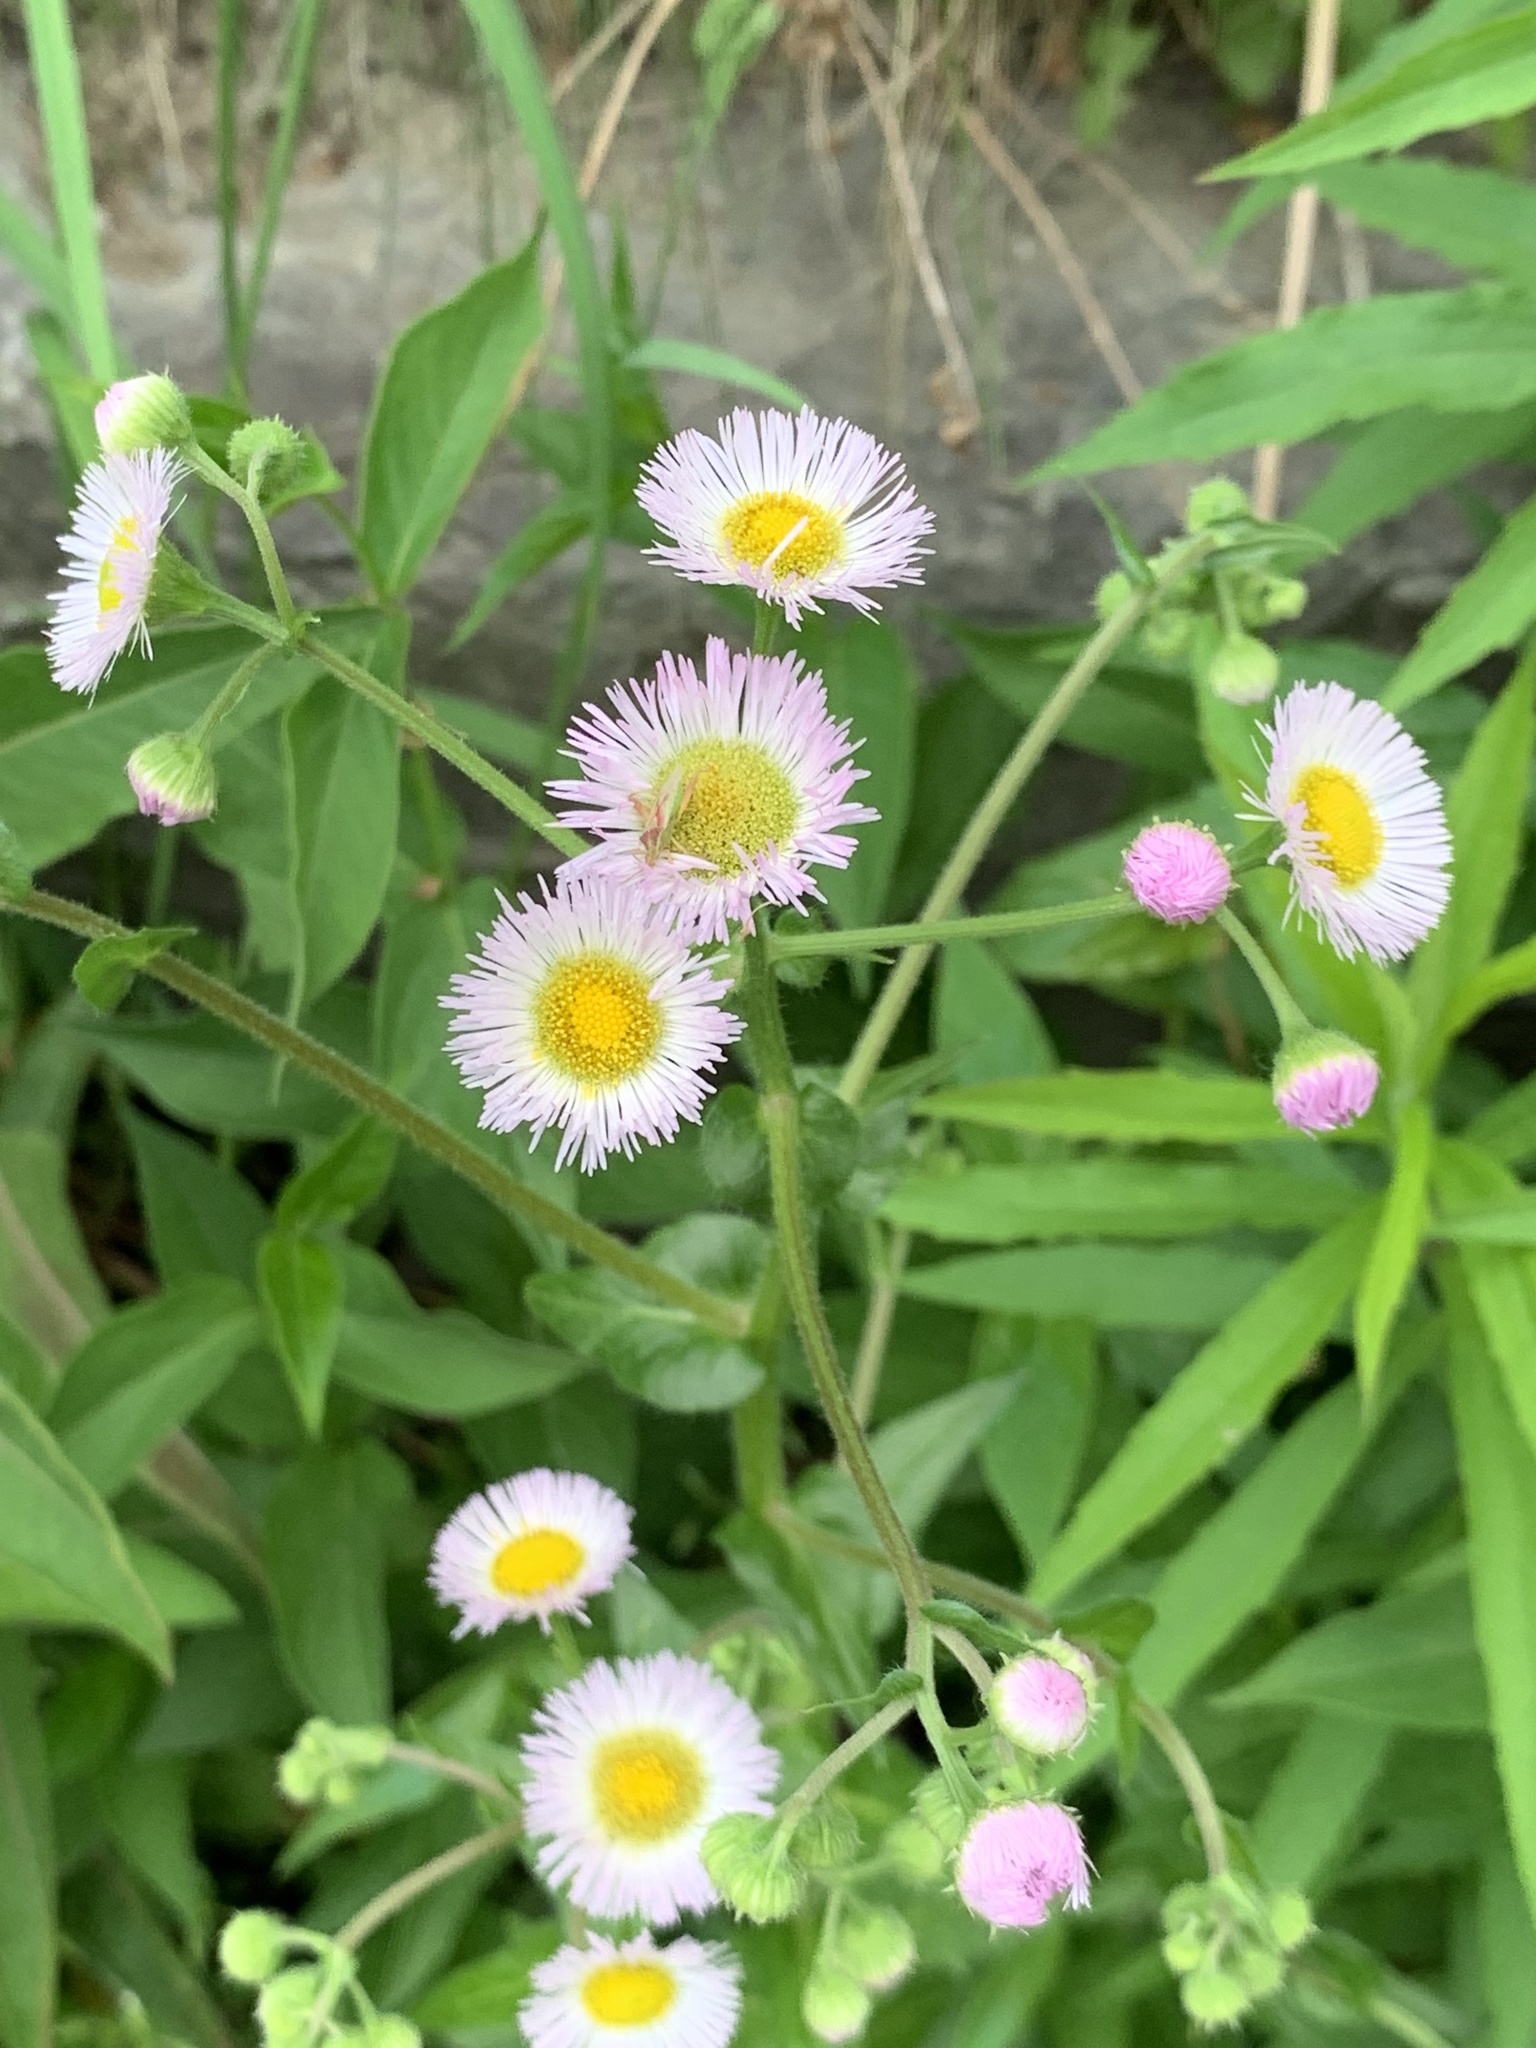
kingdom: Plantae
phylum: Tracheophyta
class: Magnoliopsida
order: Asterales
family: Asteraceae
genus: Erigeron
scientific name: Erigeron philadelphicus
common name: Robin's-plantain
